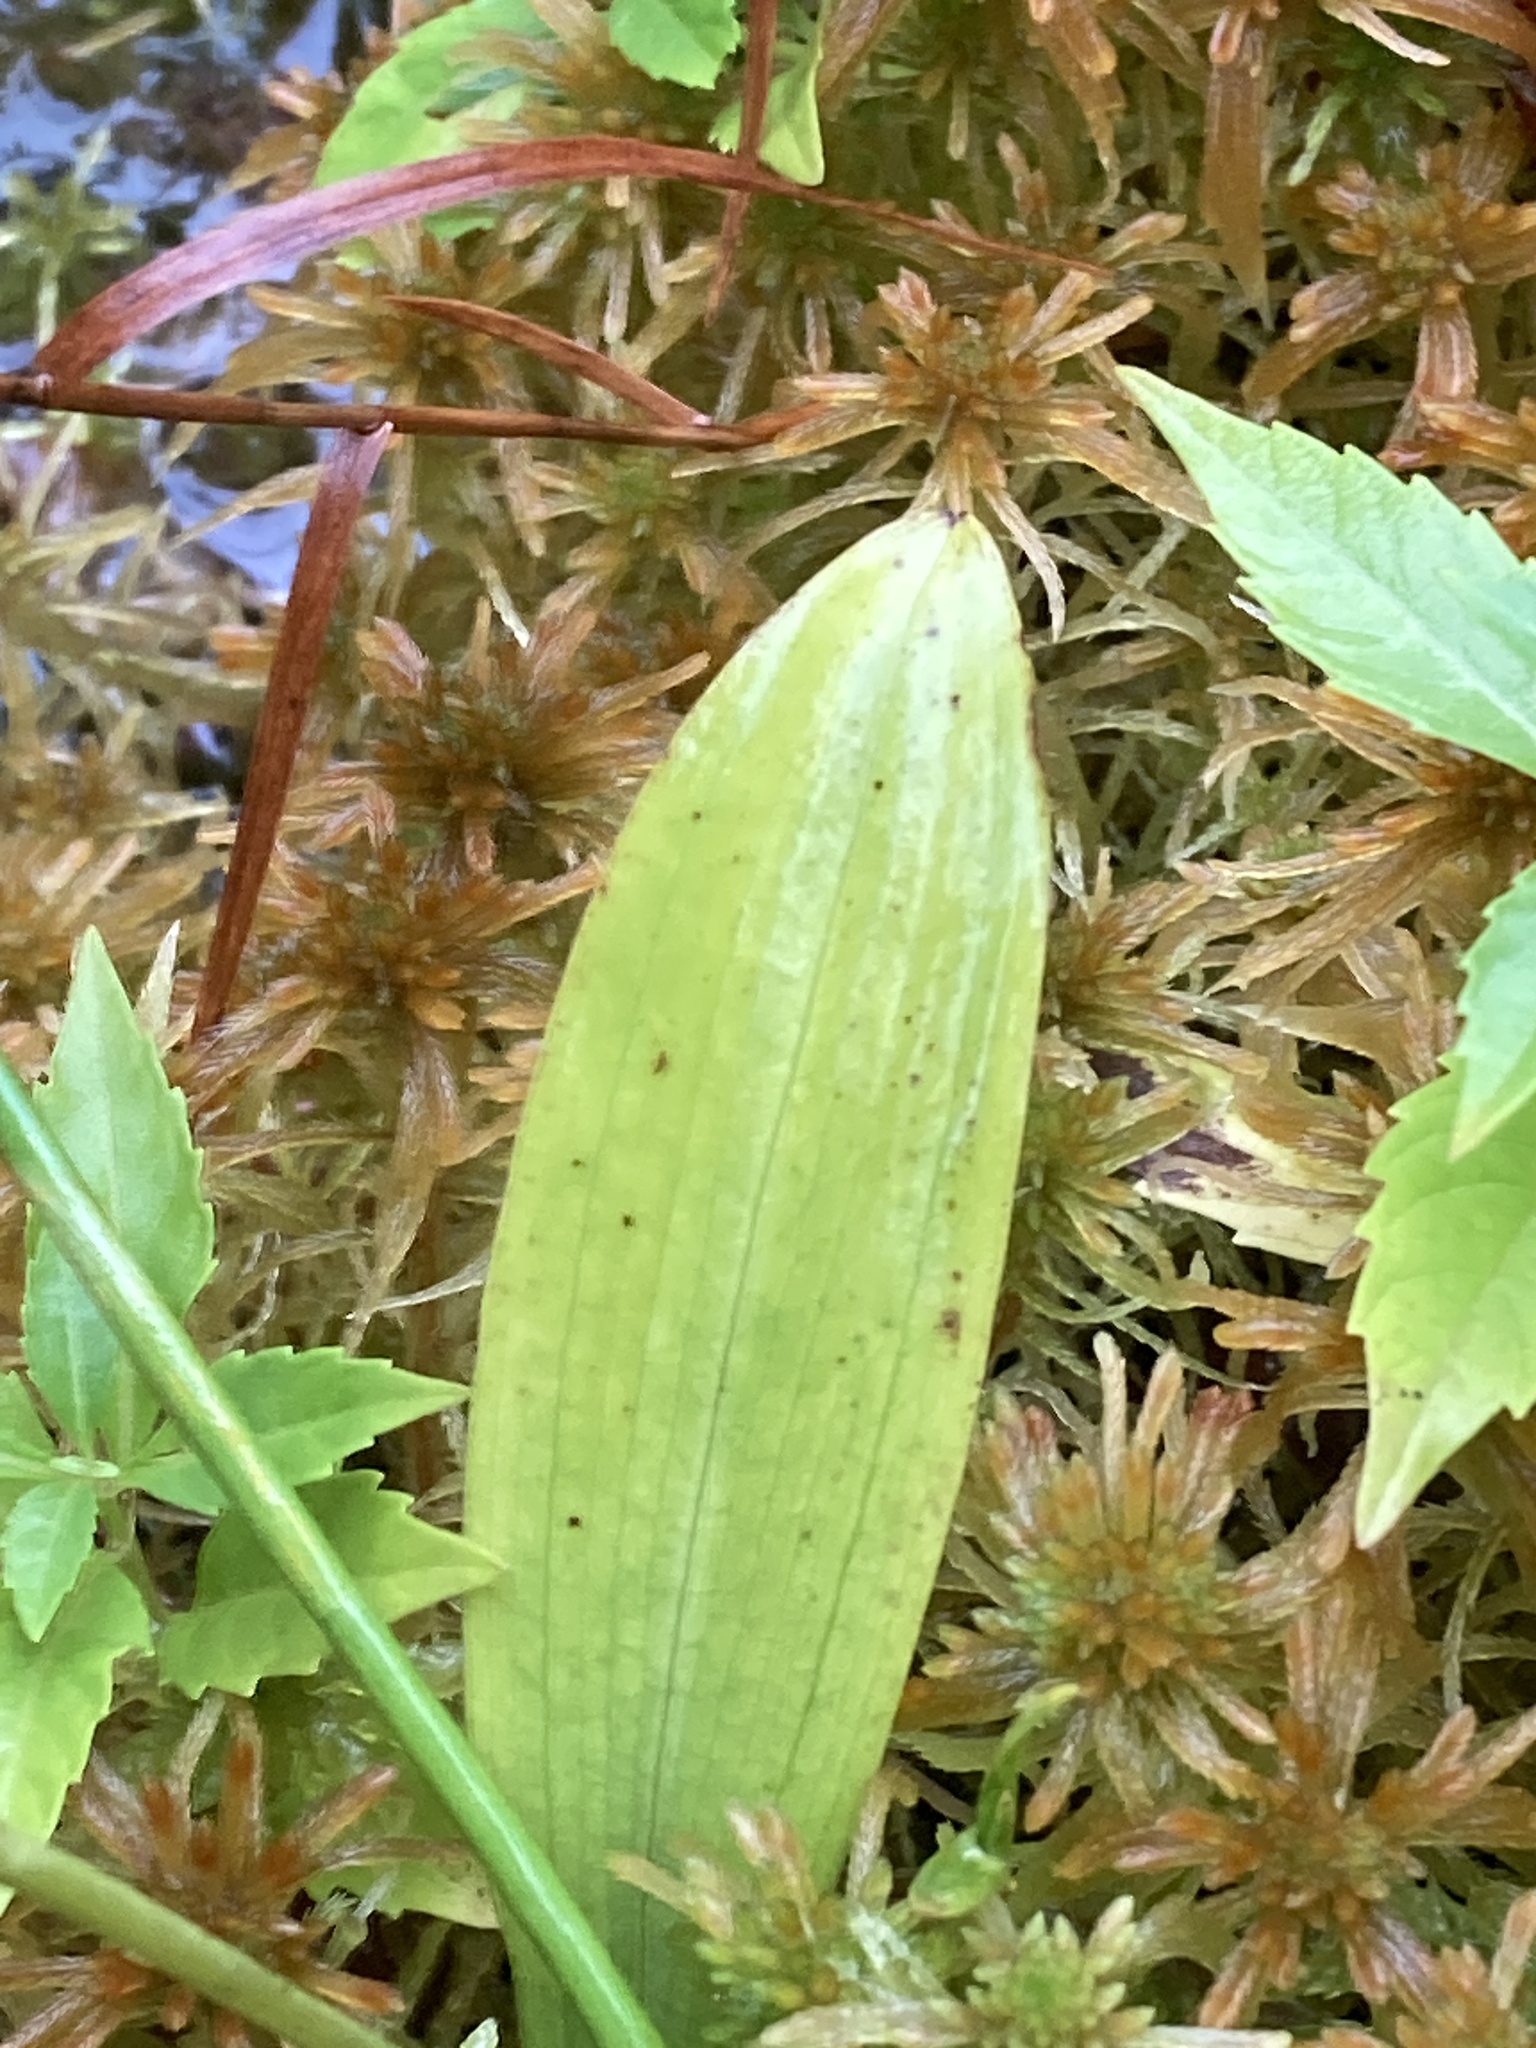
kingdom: Plantae
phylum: Tracheophyta
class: Liliopsida
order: Asparagales
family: Orchidaceae
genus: Platanthera
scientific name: Platanthera clavellata
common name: Club-spur orchid
